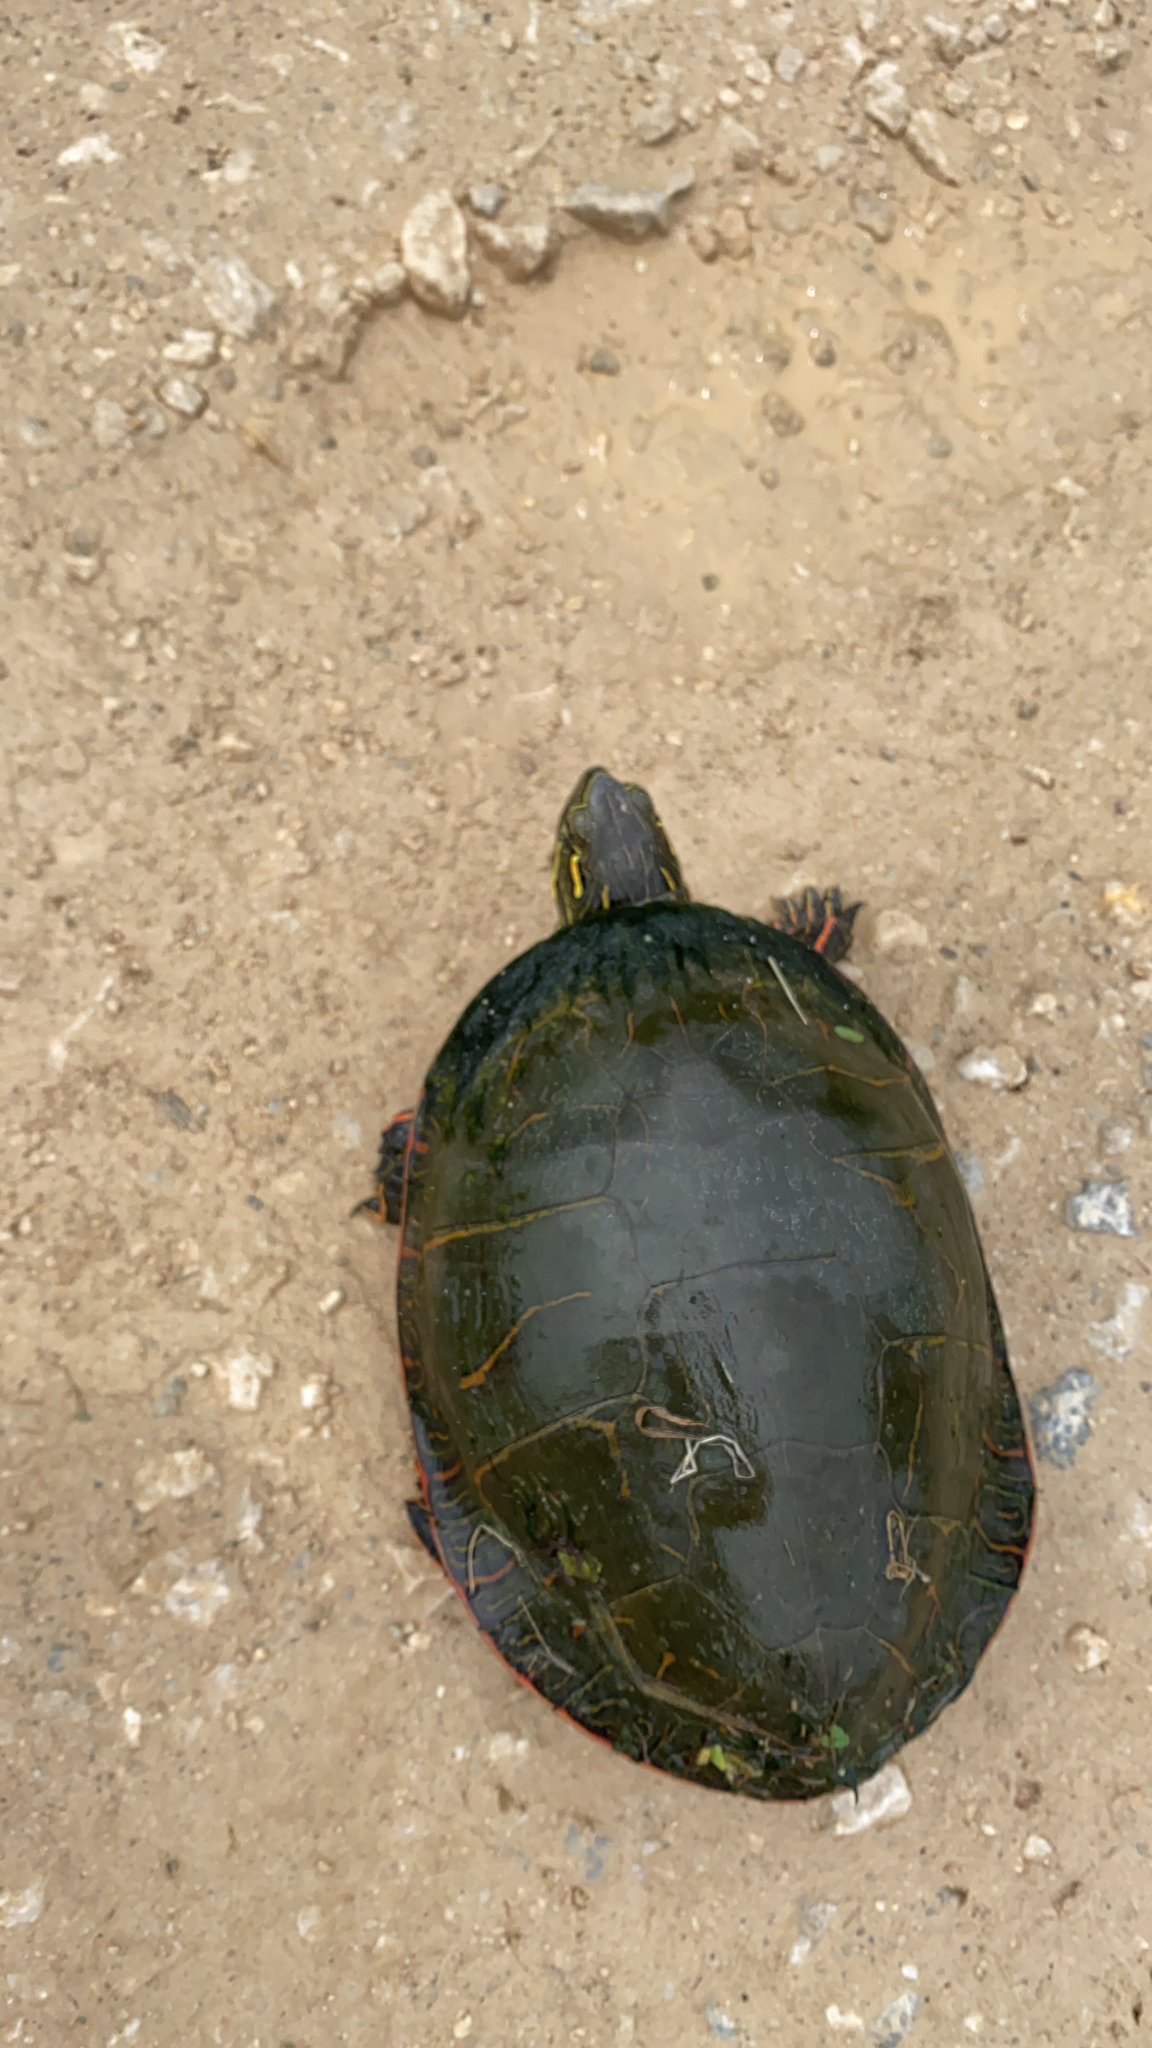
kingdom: Animalia
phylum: Chordata
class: Testudines
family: Emydidae
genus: Chrysemys
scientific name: Chrysemys picta
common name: Painted turtle
